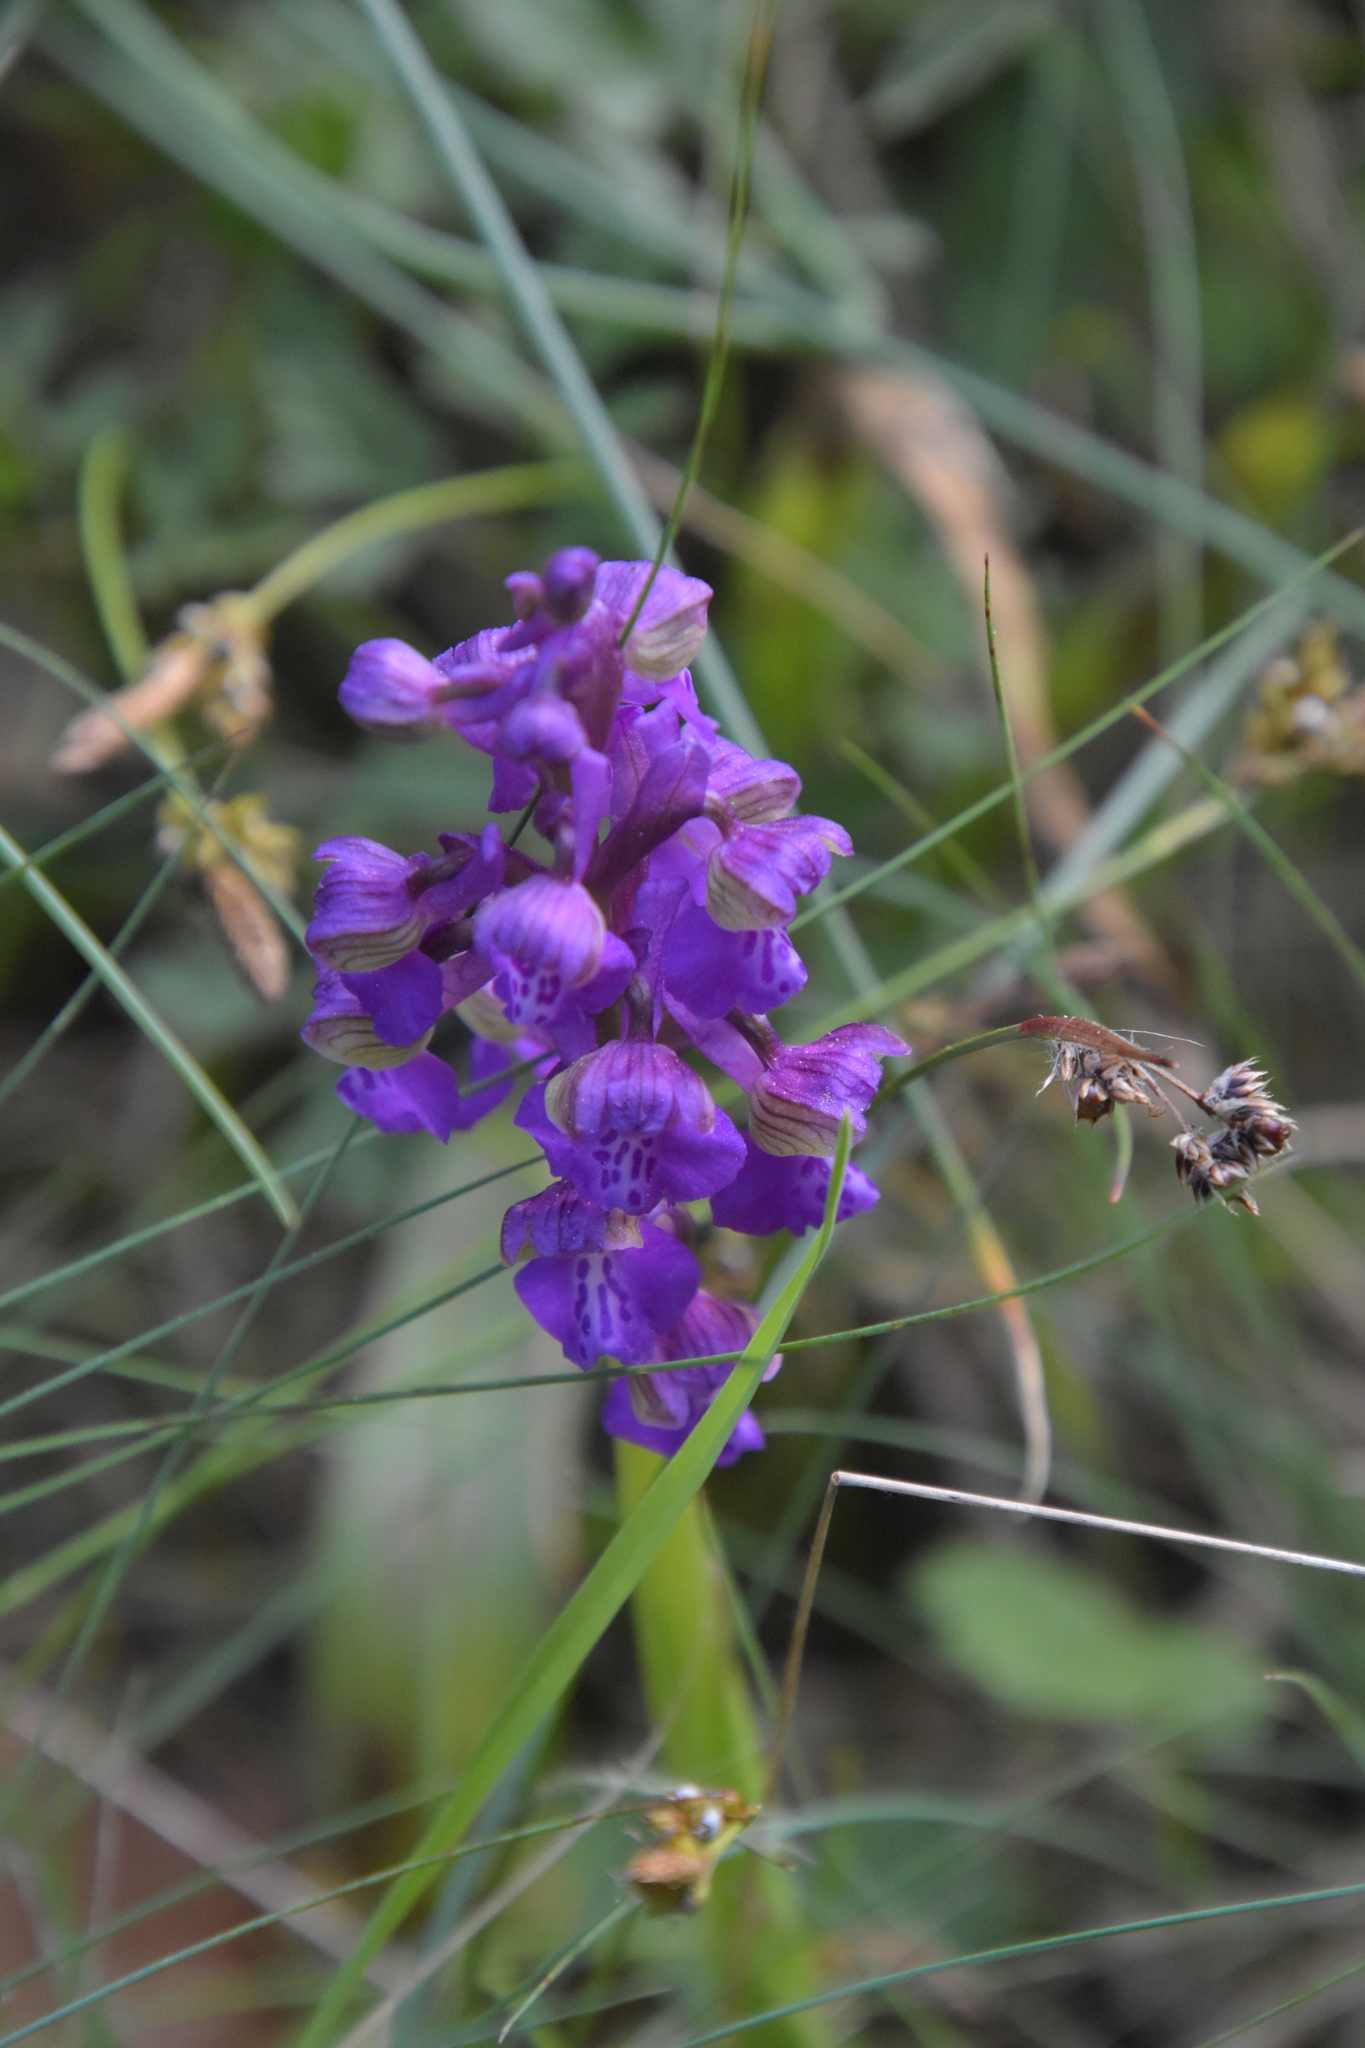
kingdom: Plantae
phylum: Tracheophyta
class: Liliopsida
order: Asparagales
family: Orchidaceae
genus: Anacamptis
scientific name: Anacamptis morio
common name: Green-winged orchid
